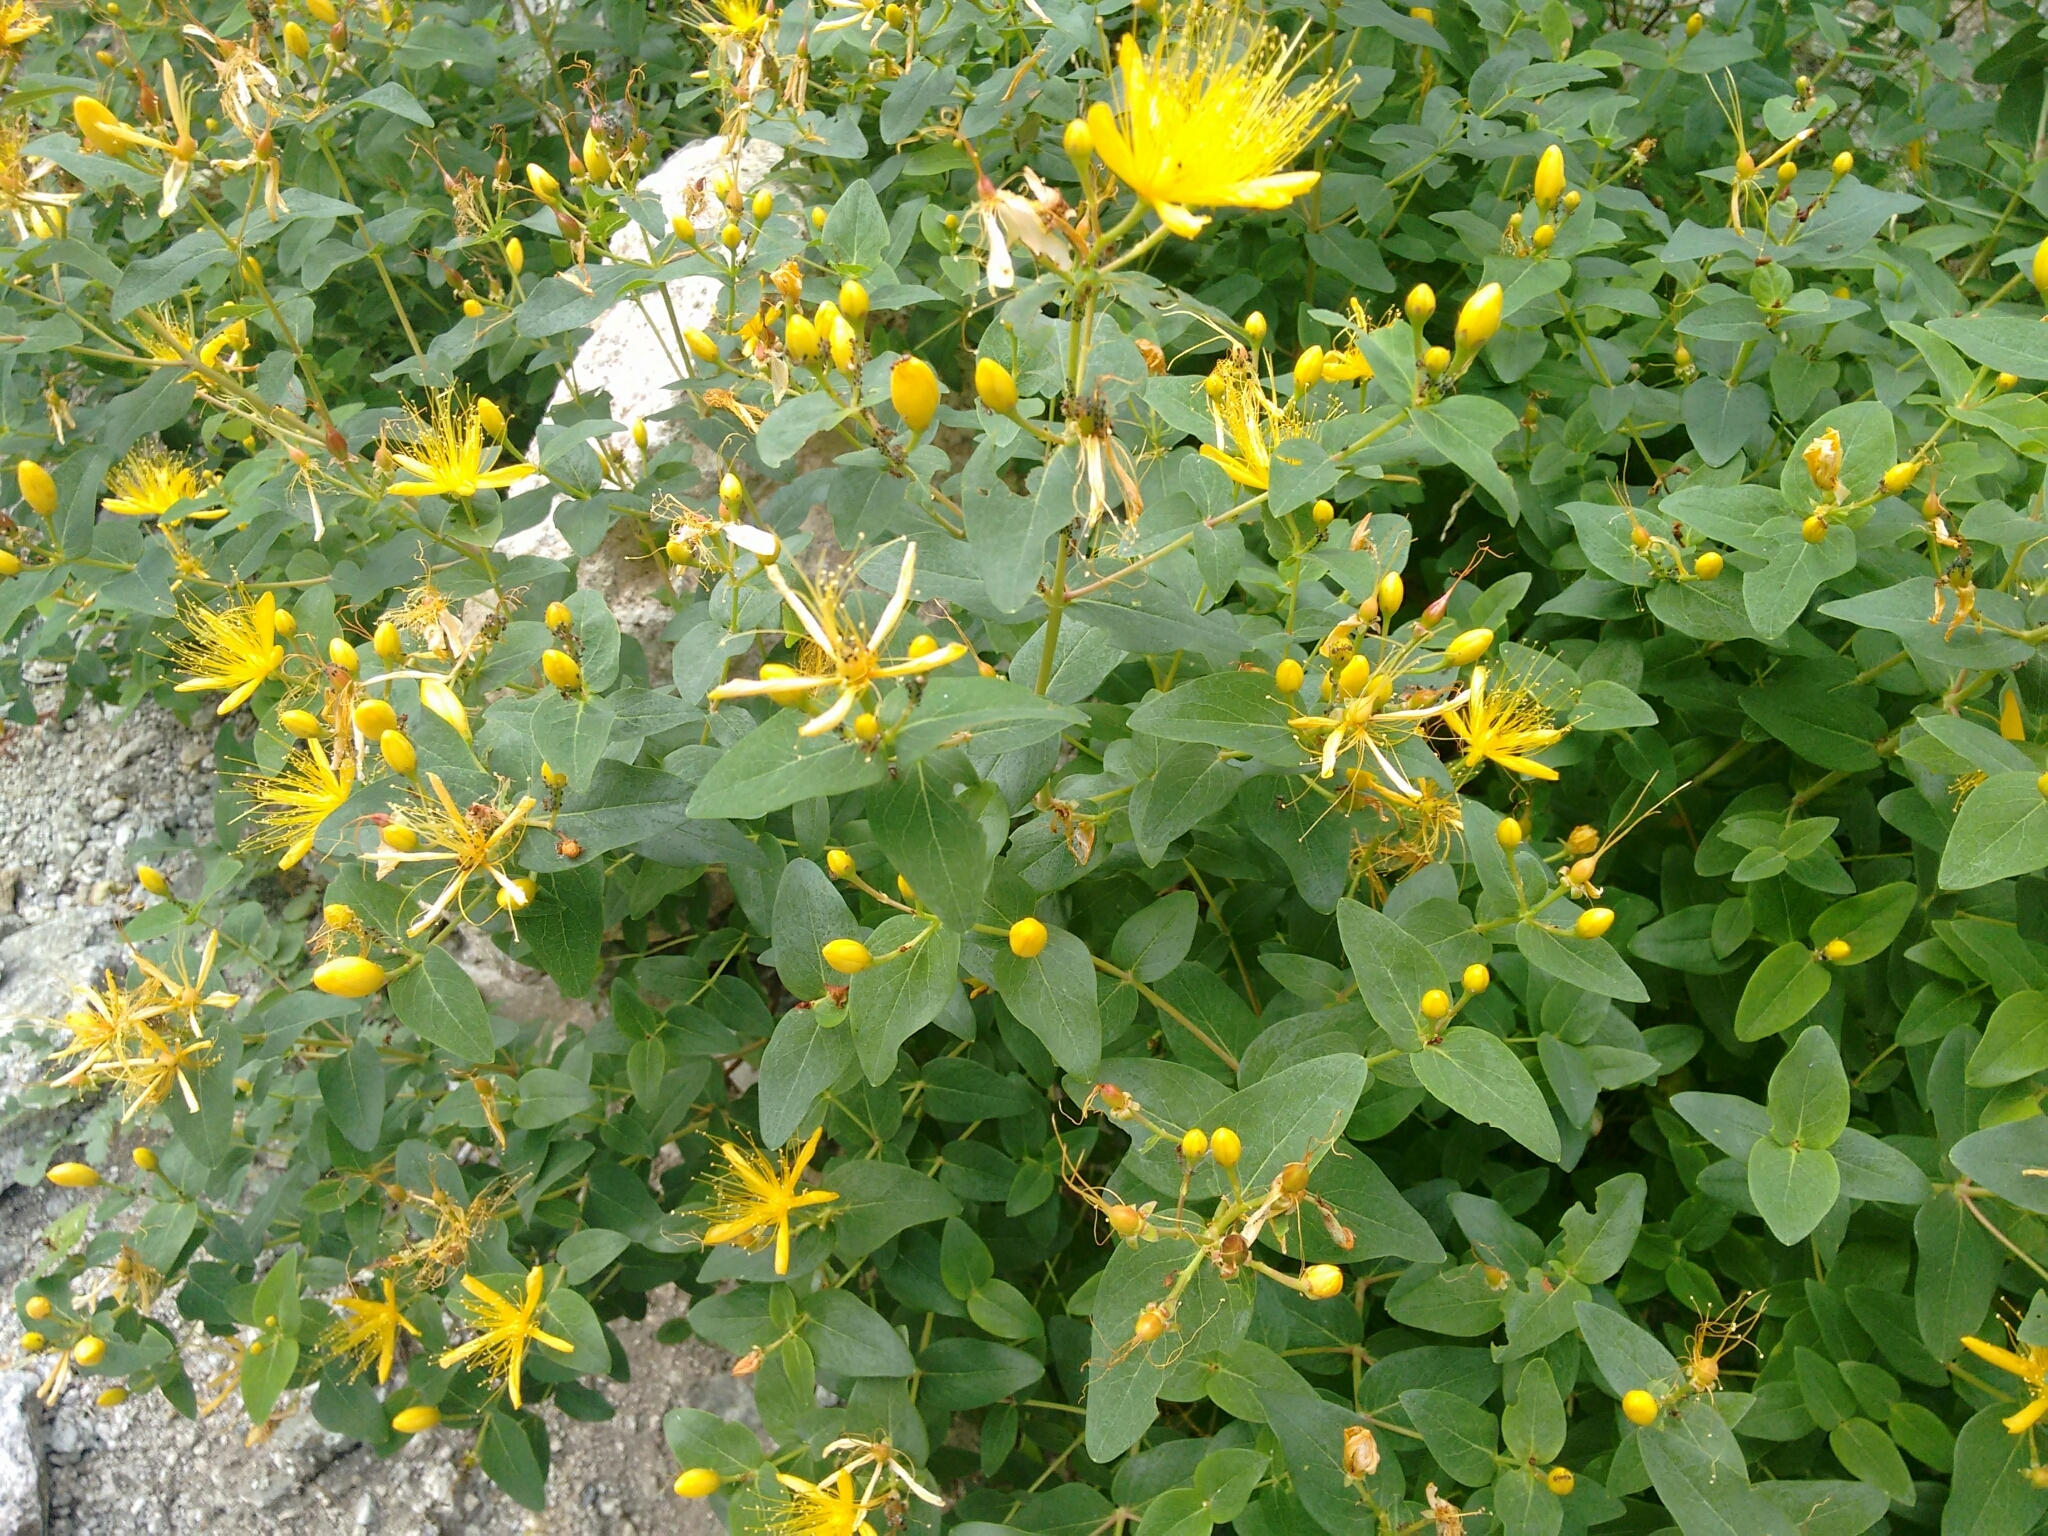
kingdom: Plantae
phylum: Tracheophyta
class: Magnoliopsida
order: Malpighiales
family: Hypericaceae
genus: Hypericum
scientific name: Hypericum hircinum
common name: Stinking tutsan
